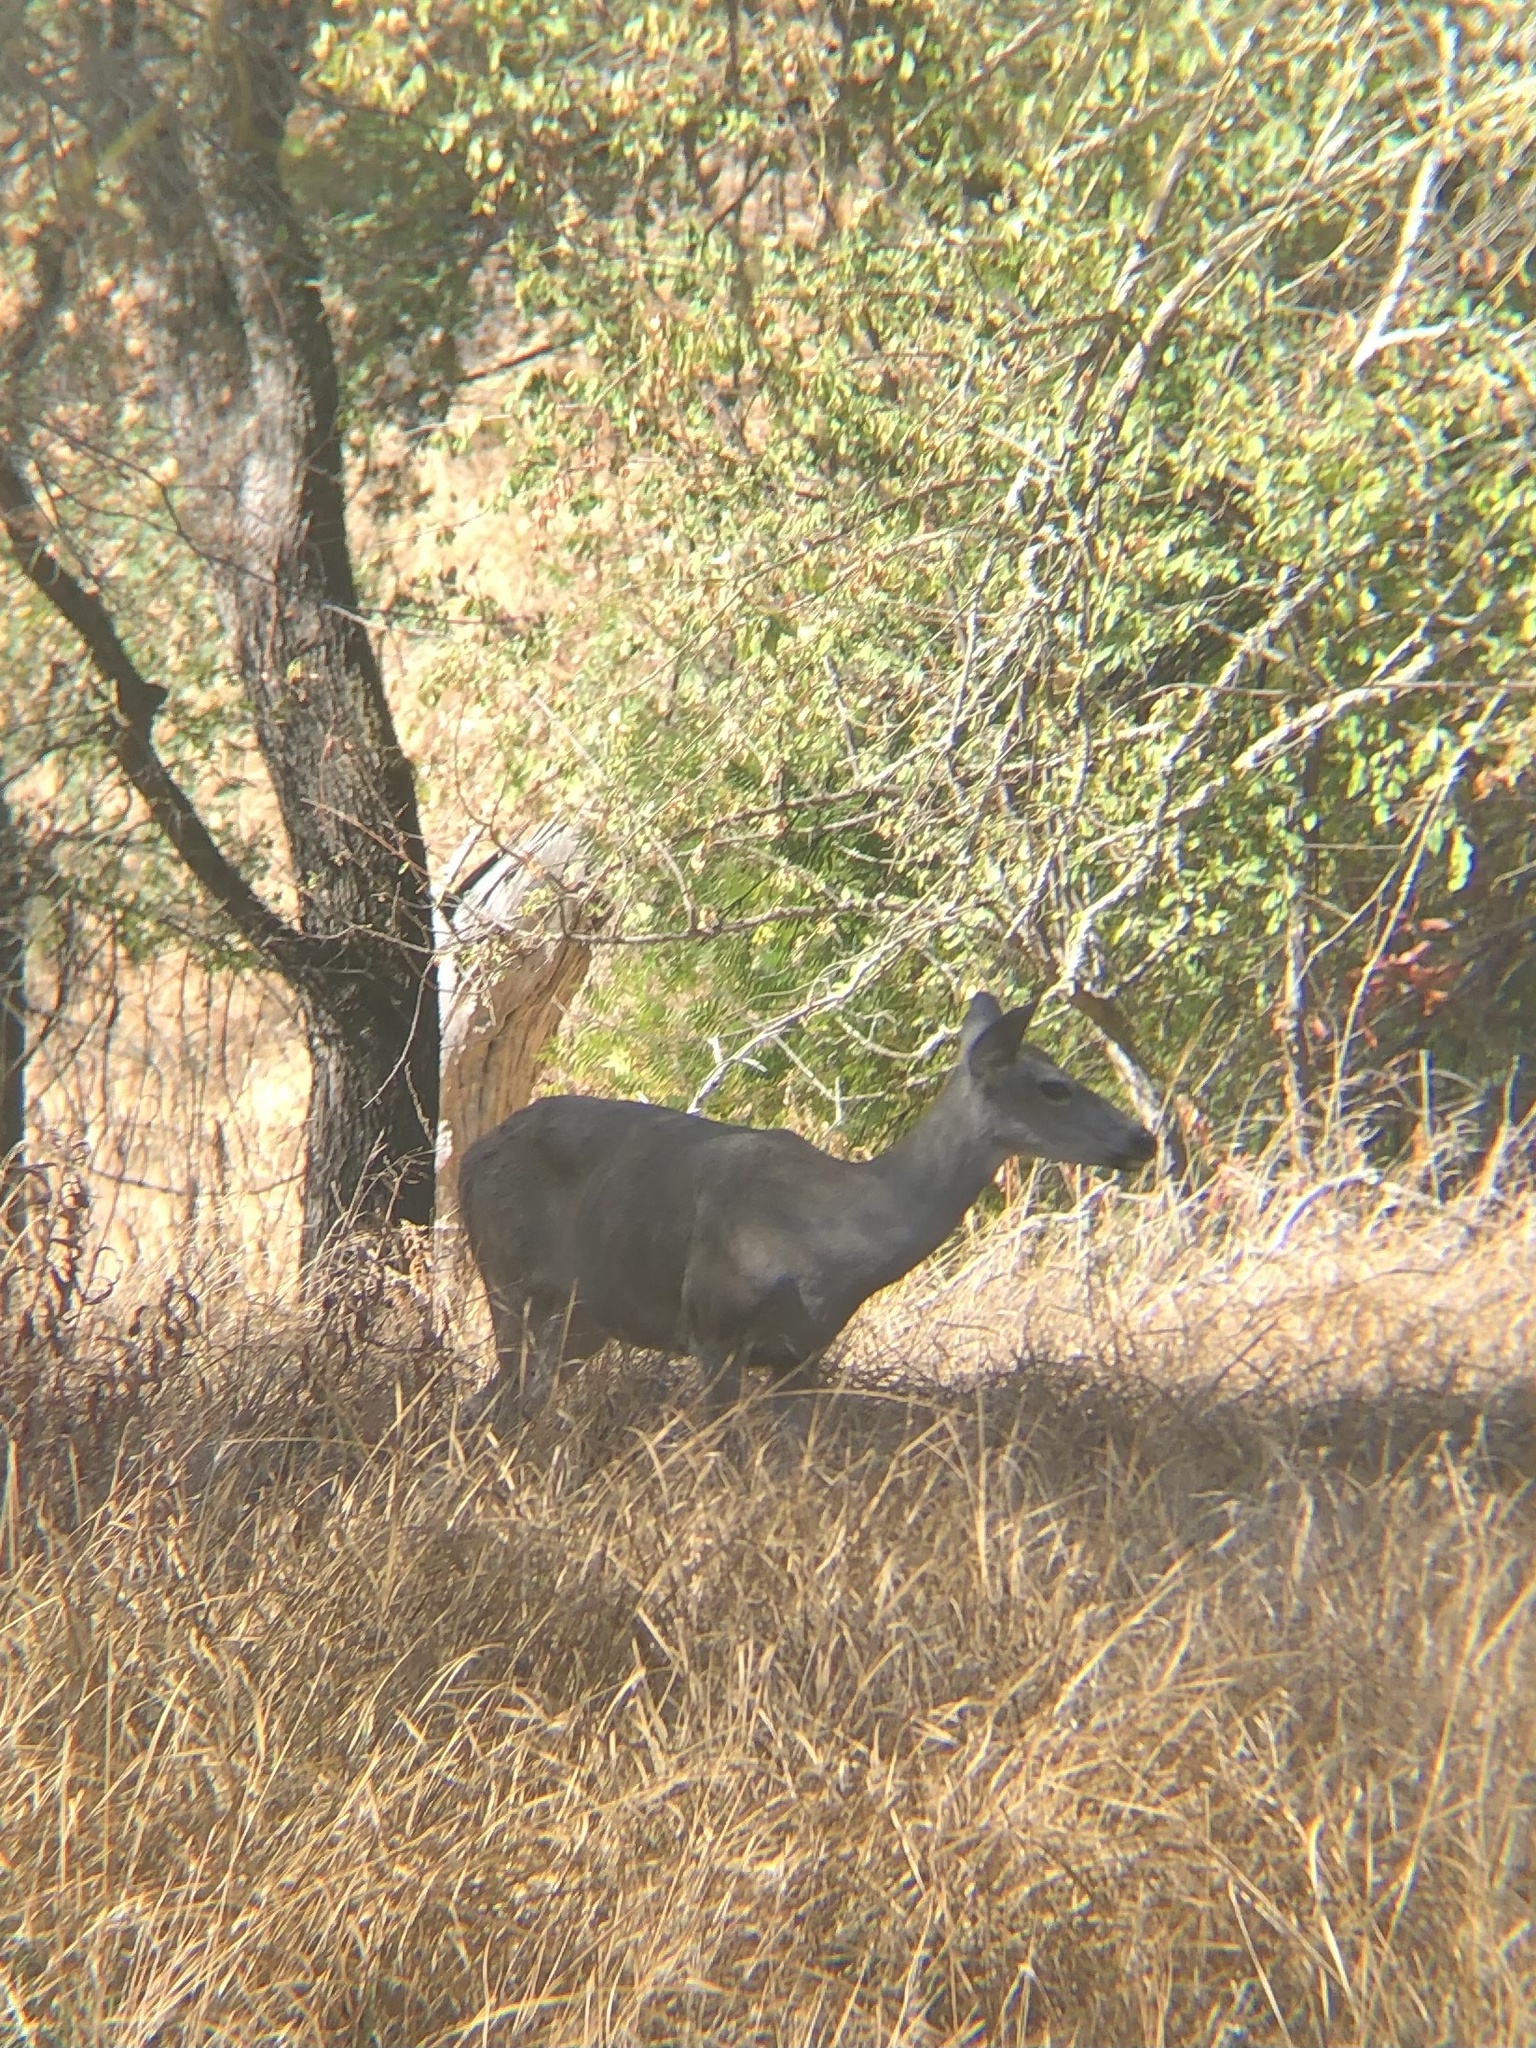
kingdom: Animalia
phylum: Chordata
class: Mammalia
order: Artiodactyla
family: Cervidae
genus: Odocoileus
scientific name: Odocoileus hemionus
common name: Mule deer
